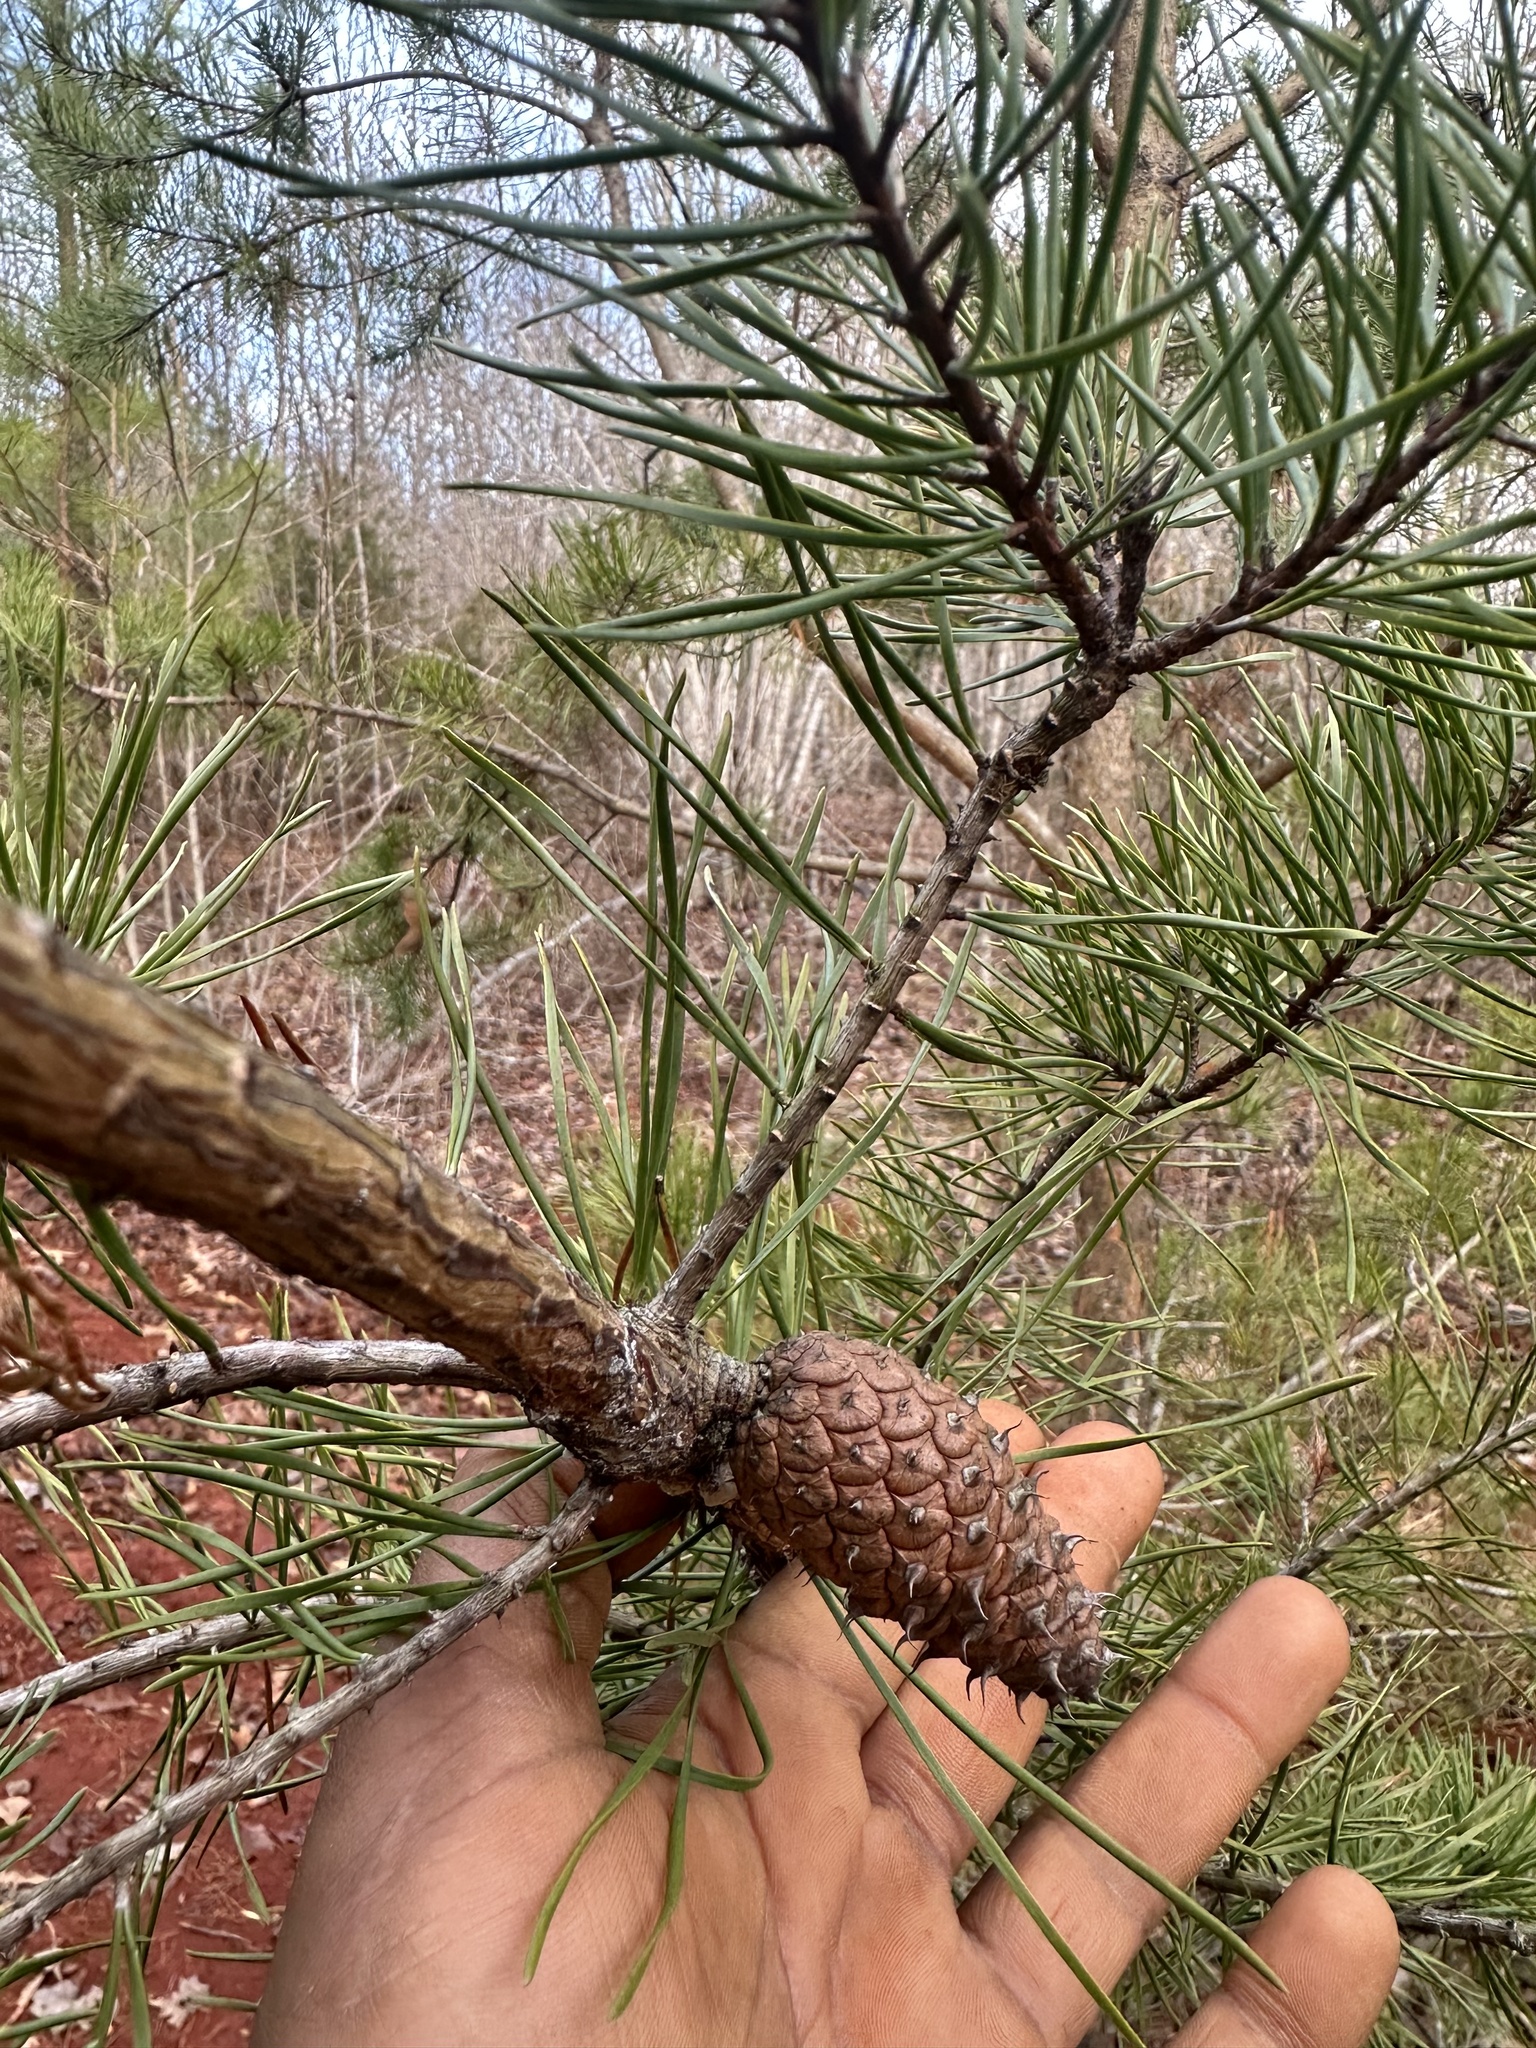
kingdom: Plantae
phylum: Tracheophyta
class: Pinopsida
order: Pinales
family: Pinaceae
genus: Pinus
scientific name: Pinus virginiana
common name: Scrub pine
